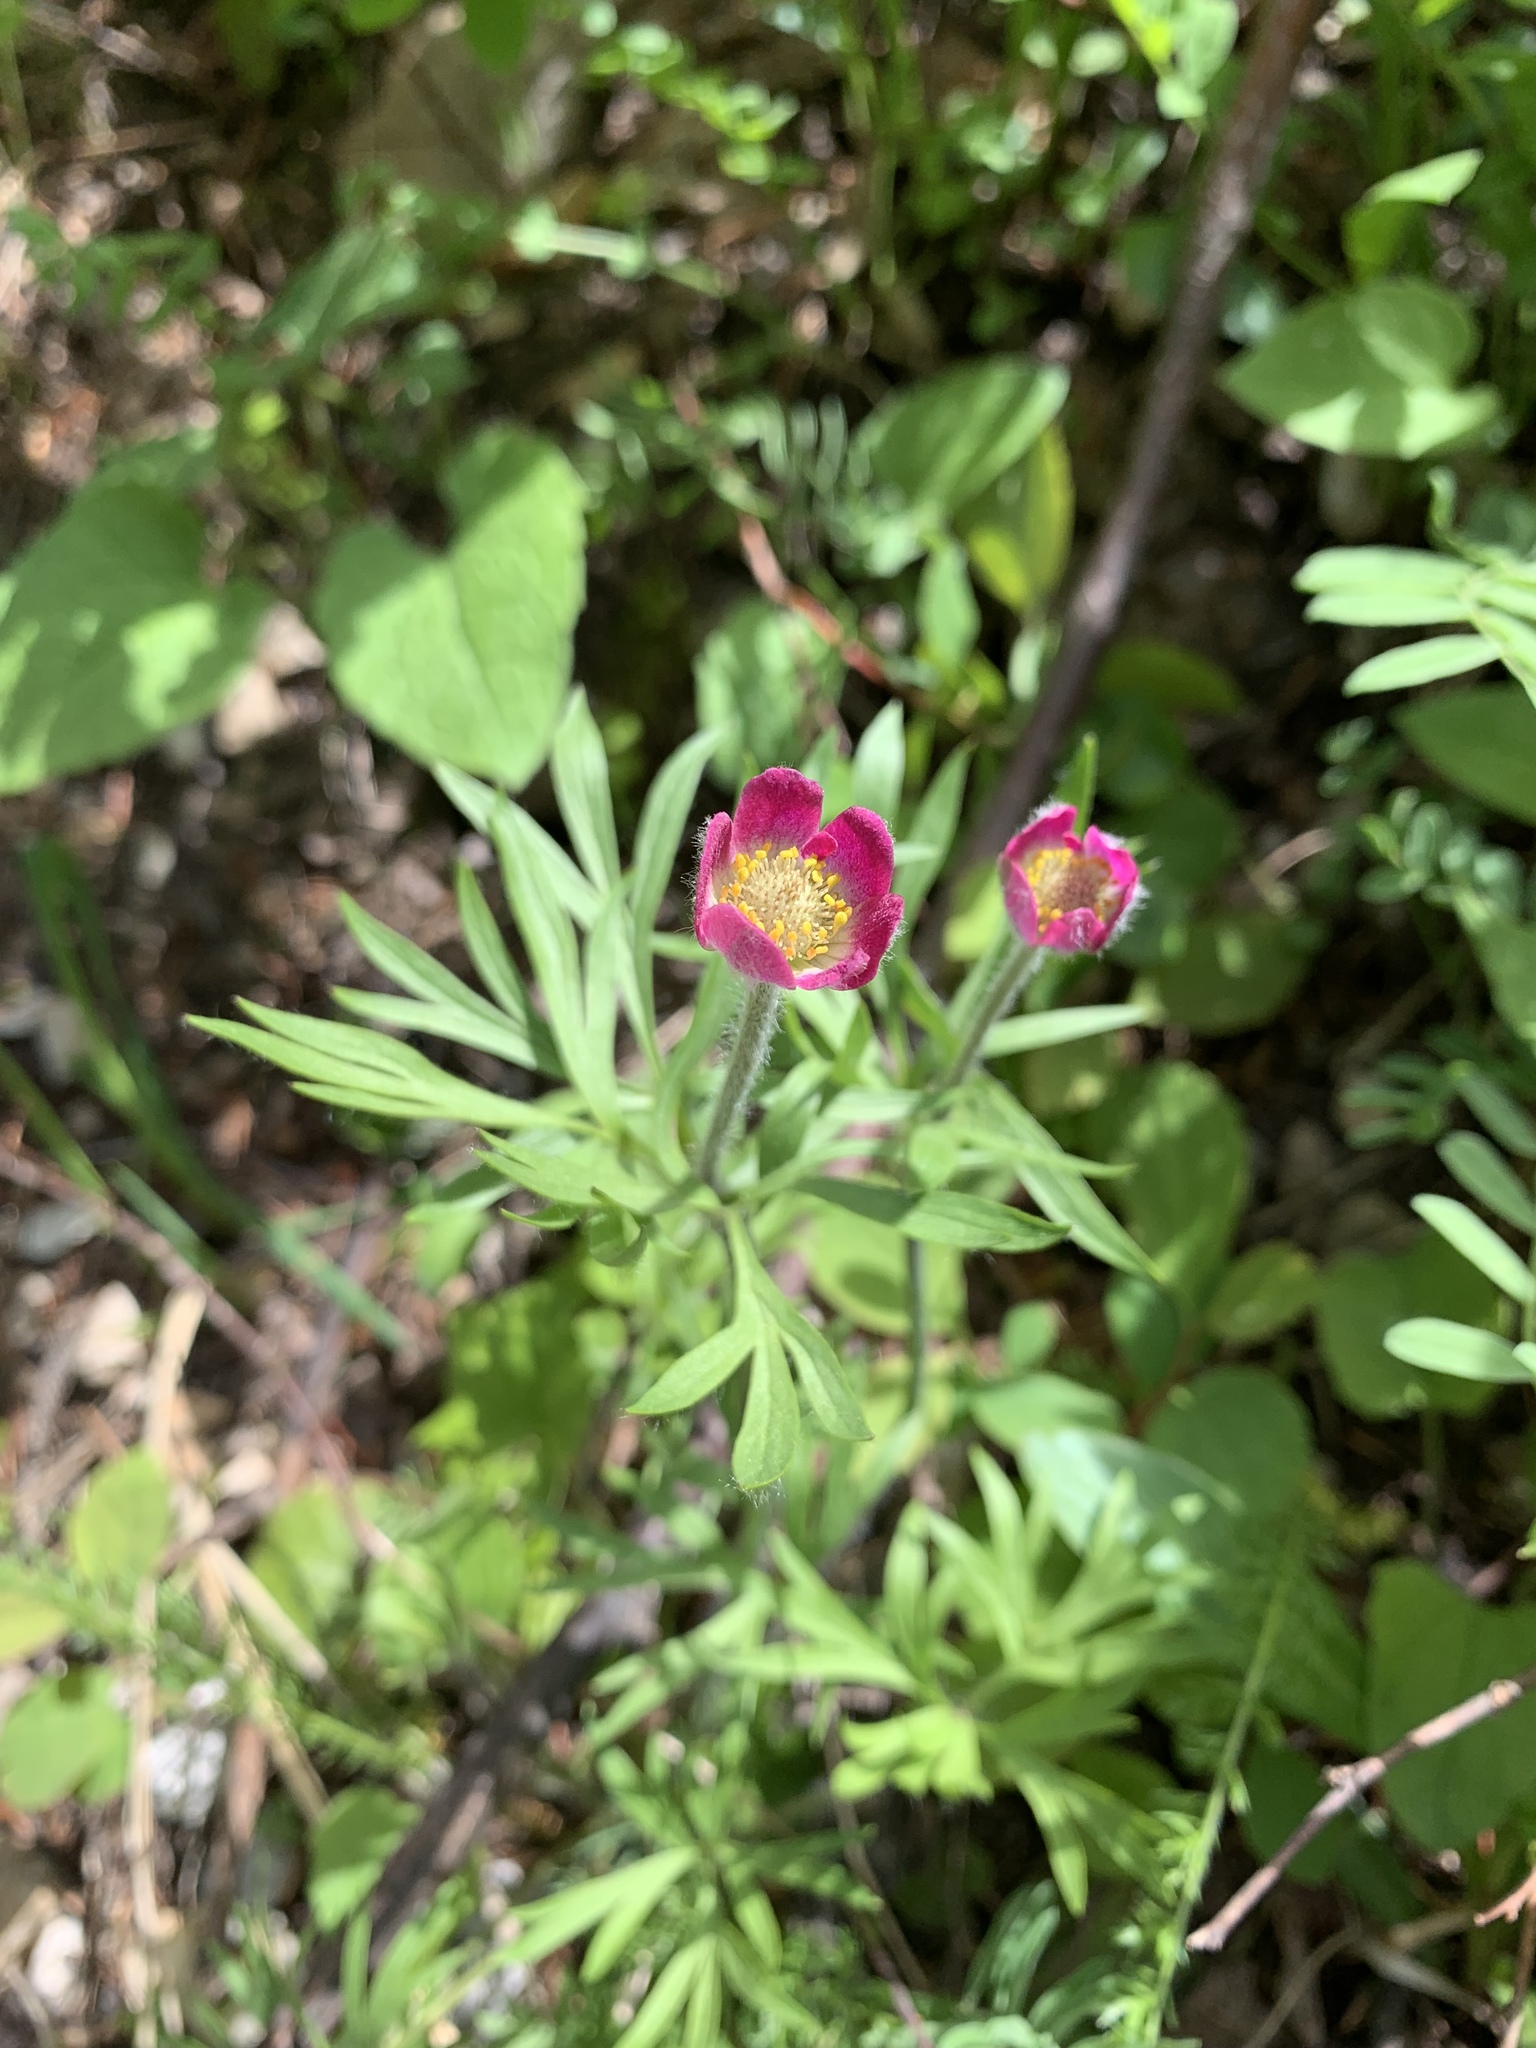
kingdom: Plantae
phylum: Tracheophyta
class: Magnoliopsida
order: Ranunculales
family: Ranunculaceae
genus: Anemone
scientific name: Anemone multifida
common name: Bird's-foot anemone
